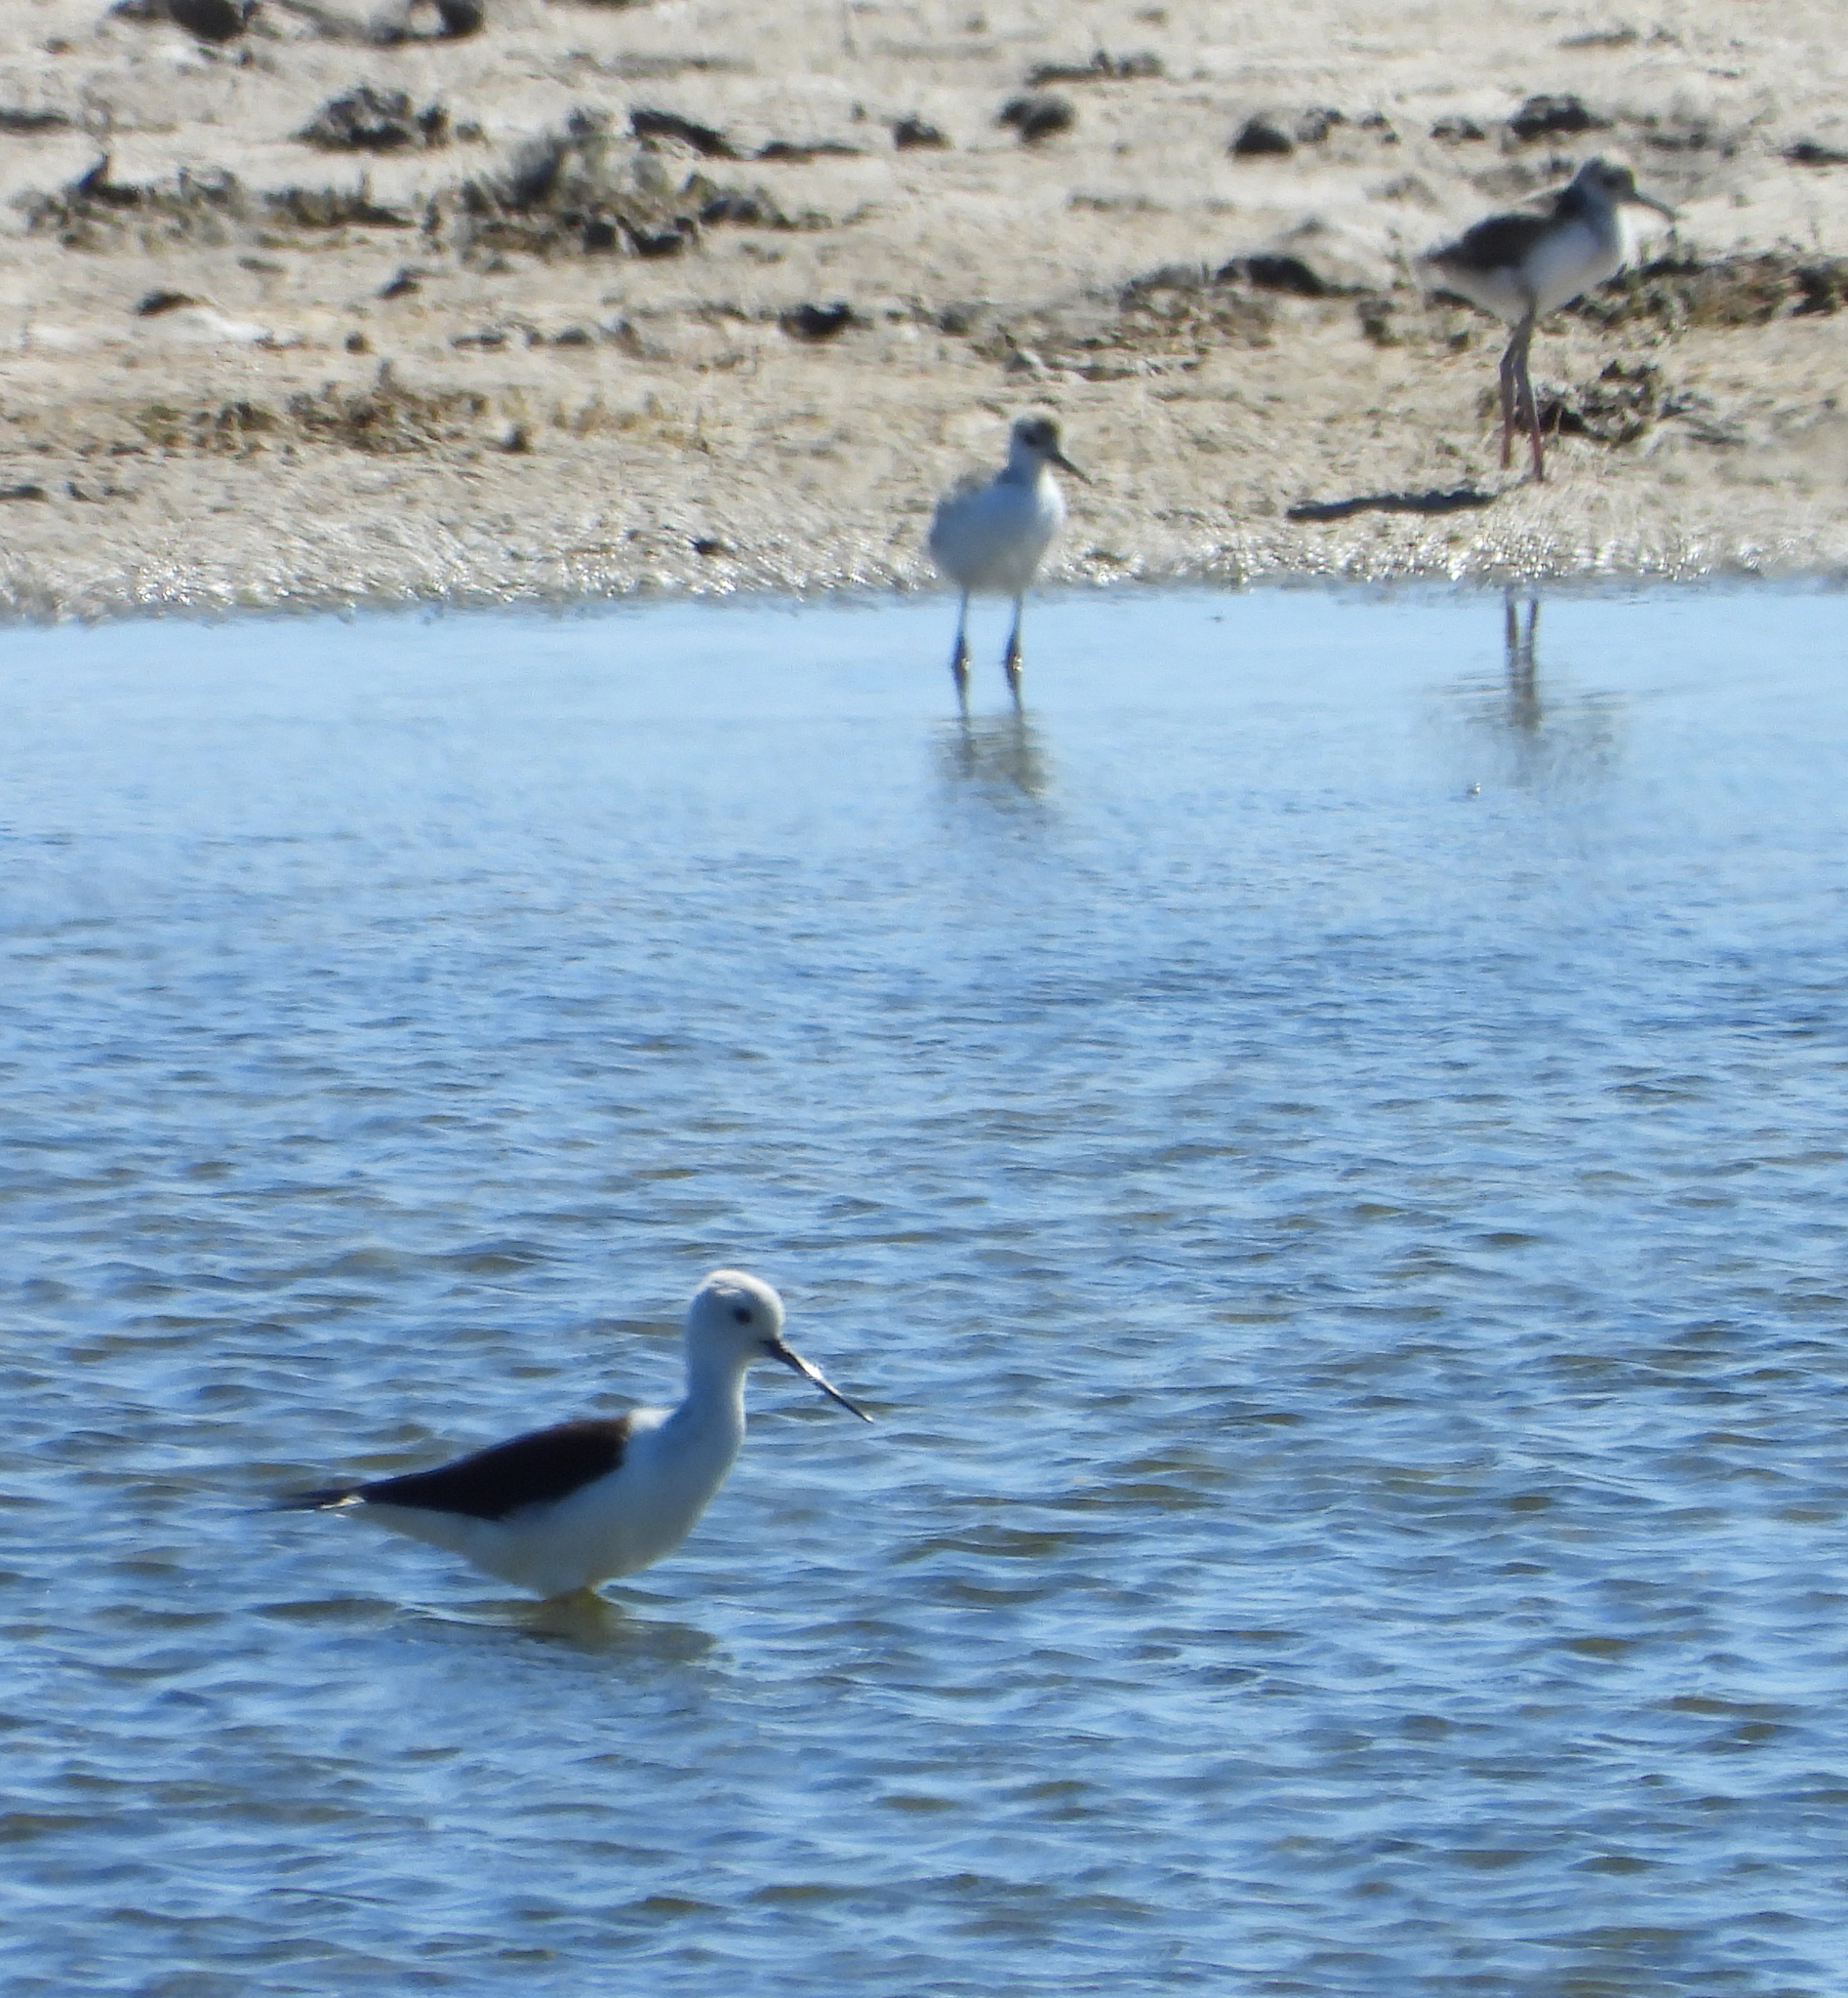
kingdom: Animalia
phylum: Chordata
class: Aves
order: Charadriiformes
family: Recurvirostridae
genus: Himantopus
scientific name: Himantopus himantopus
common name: Black-winged stilt
